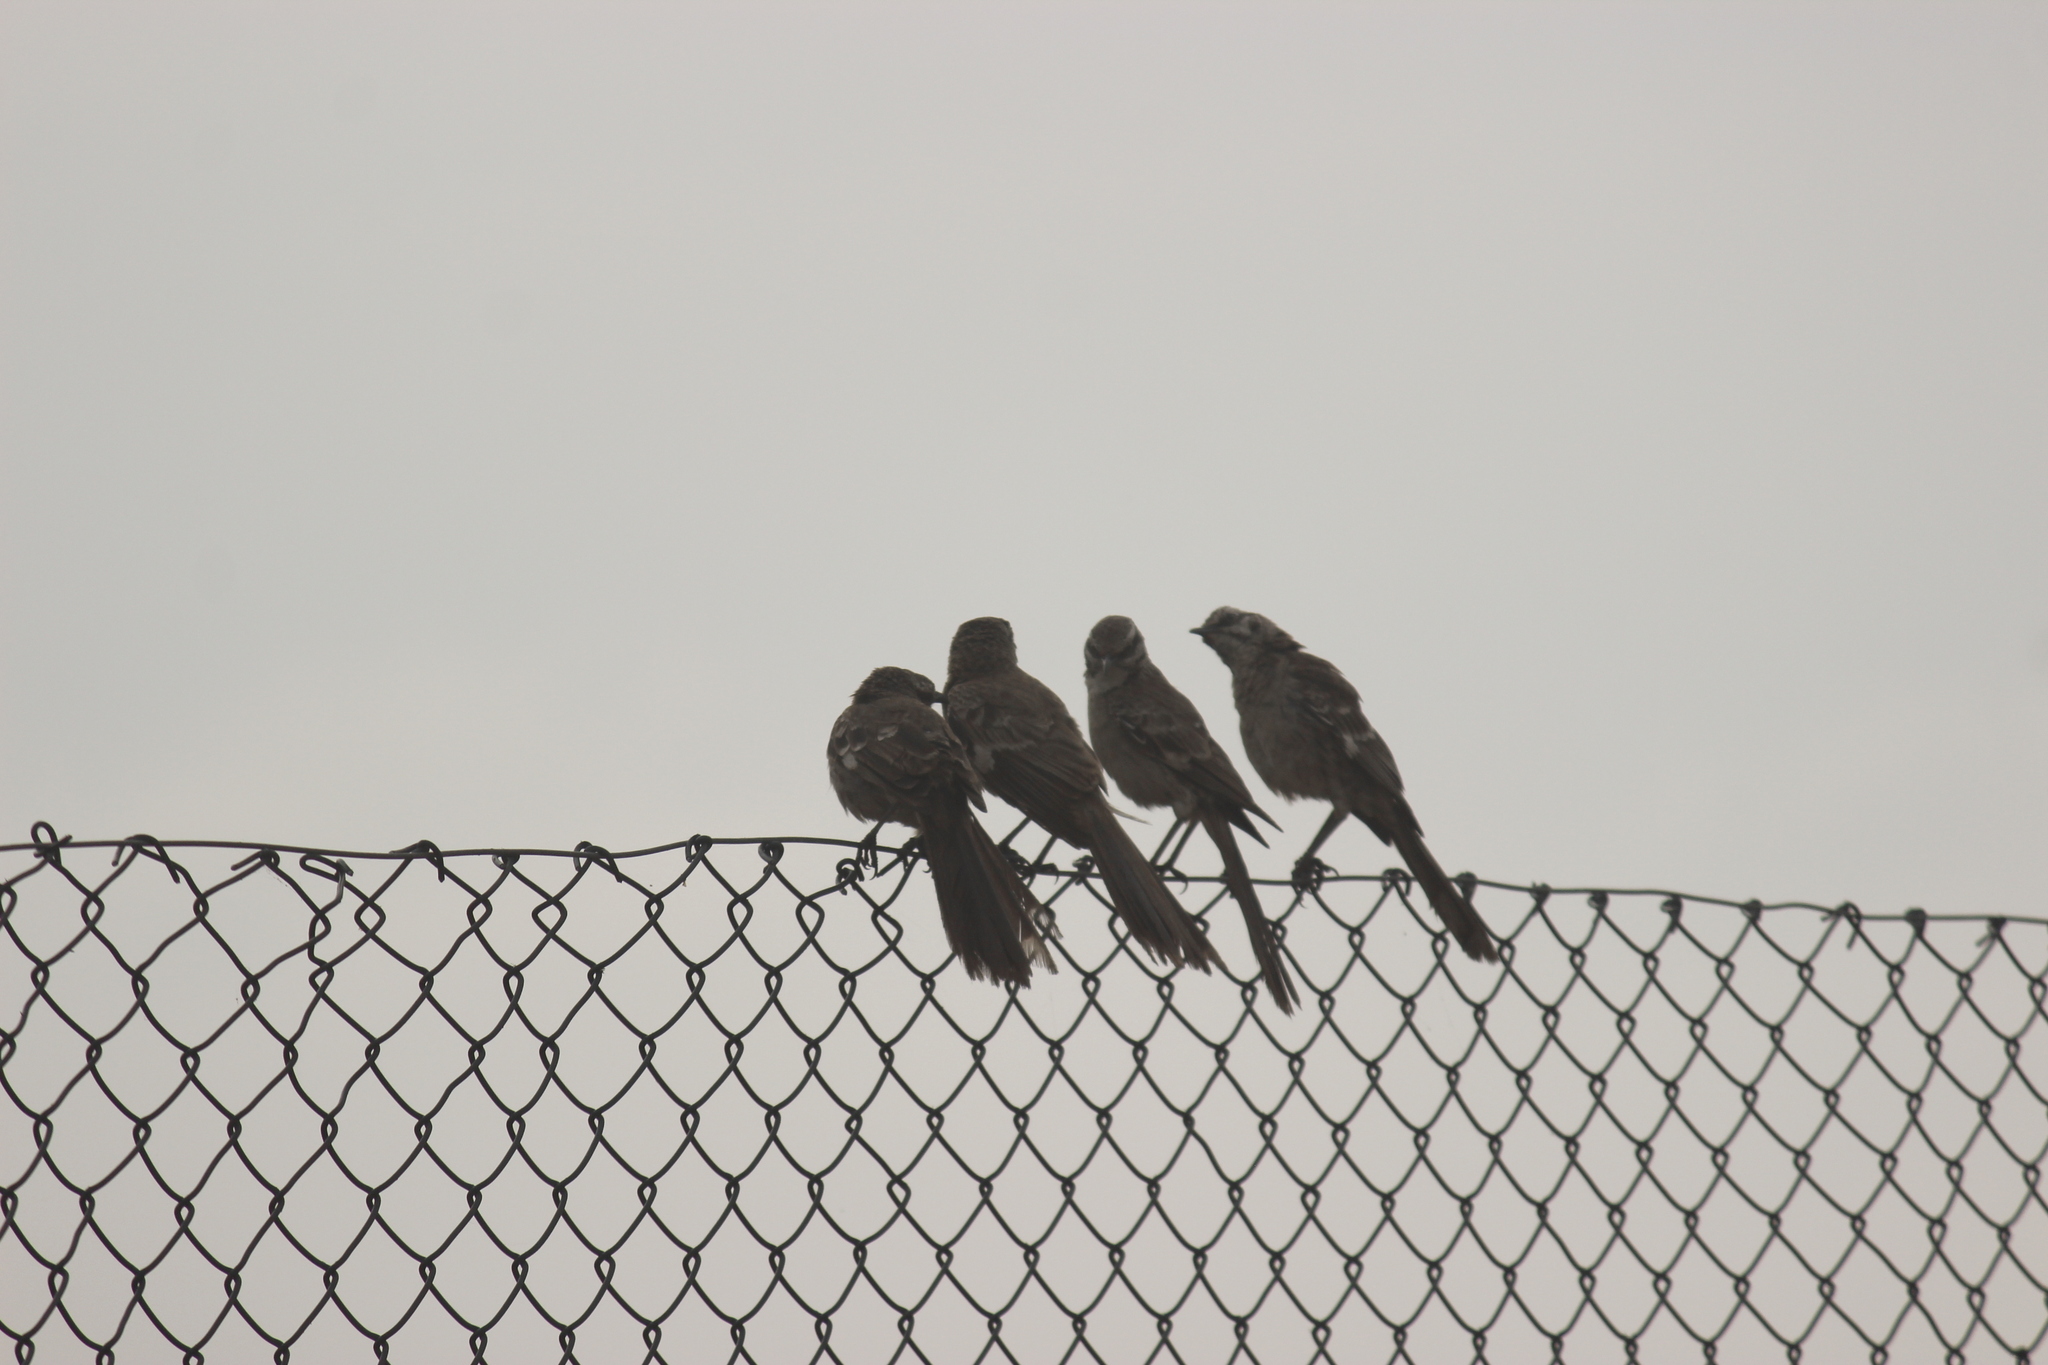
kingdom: Animalia
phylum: Chordata
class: Aves
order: Passeriformes
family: Mimidae
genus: Mimus
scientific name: Mimus longicaudatus
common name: Long-tailed mockingbird
